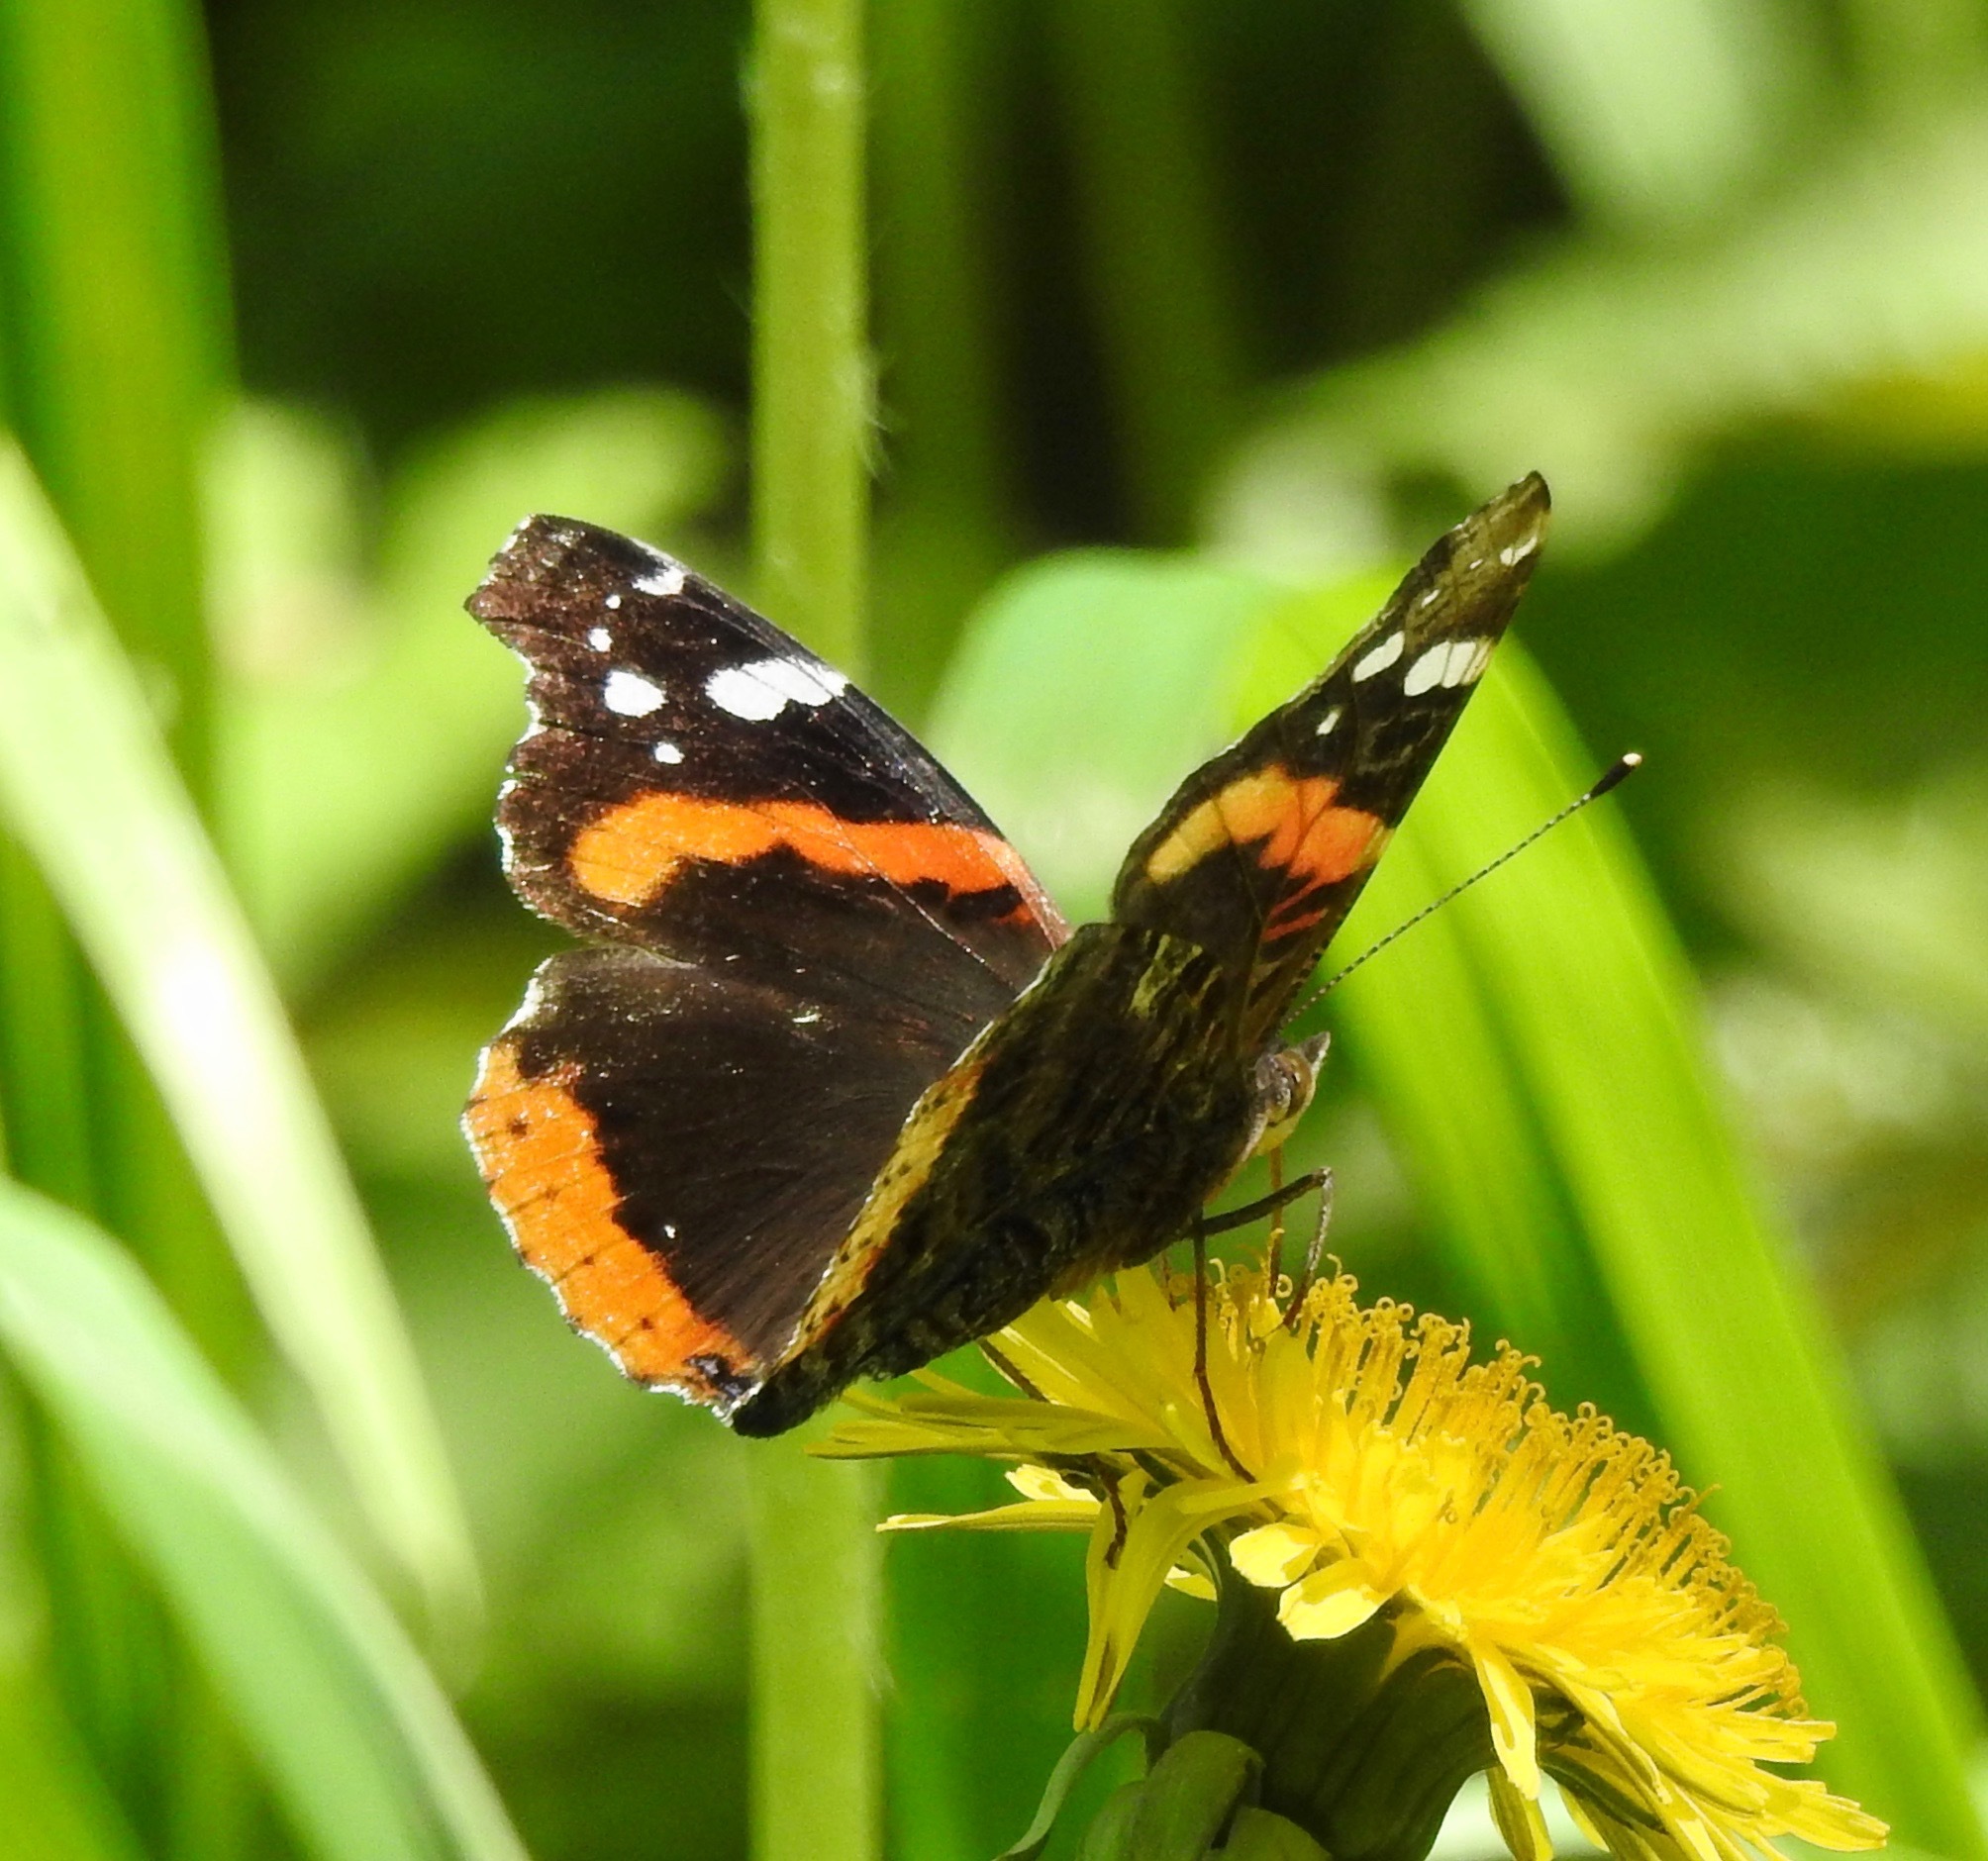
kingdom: Animalia
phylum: Arthropoda
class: Insecta
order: Lepidoptera
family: Nymphalidae
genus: Vanessa
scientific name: Vanessa atalanta
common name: Red admiral
